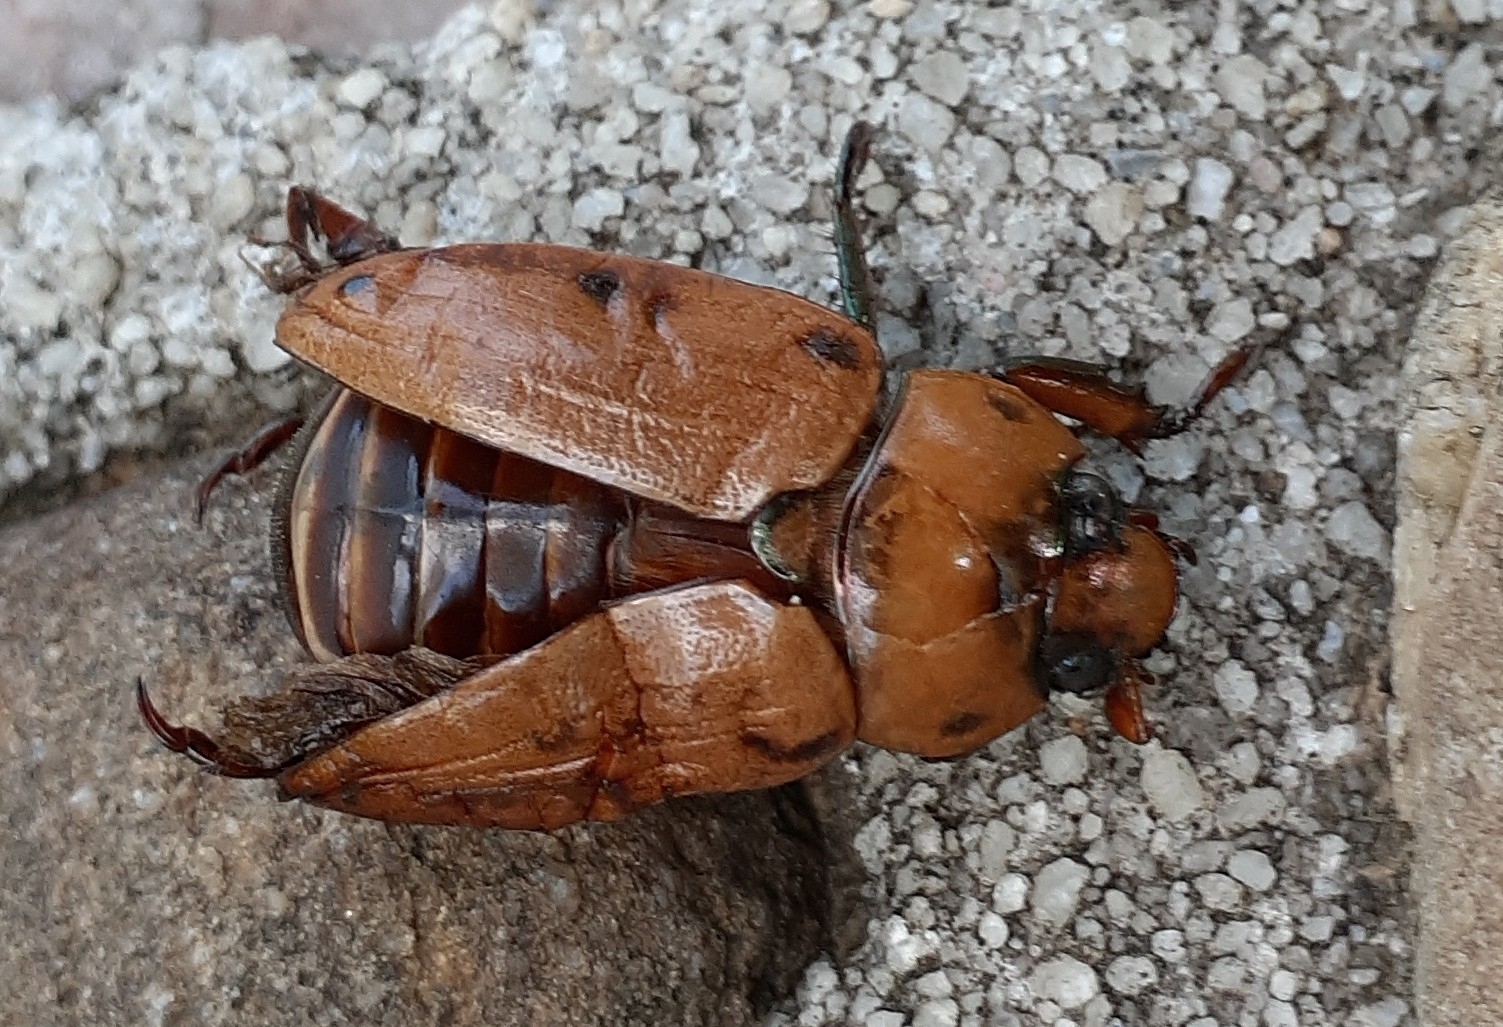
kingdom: Animalia
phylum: Arthropoda
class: Insecta
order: Coleoptera
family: Scarabaeidae
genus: Pelidnota
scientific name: Pelidnota punctata
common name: Grapevine beetle
